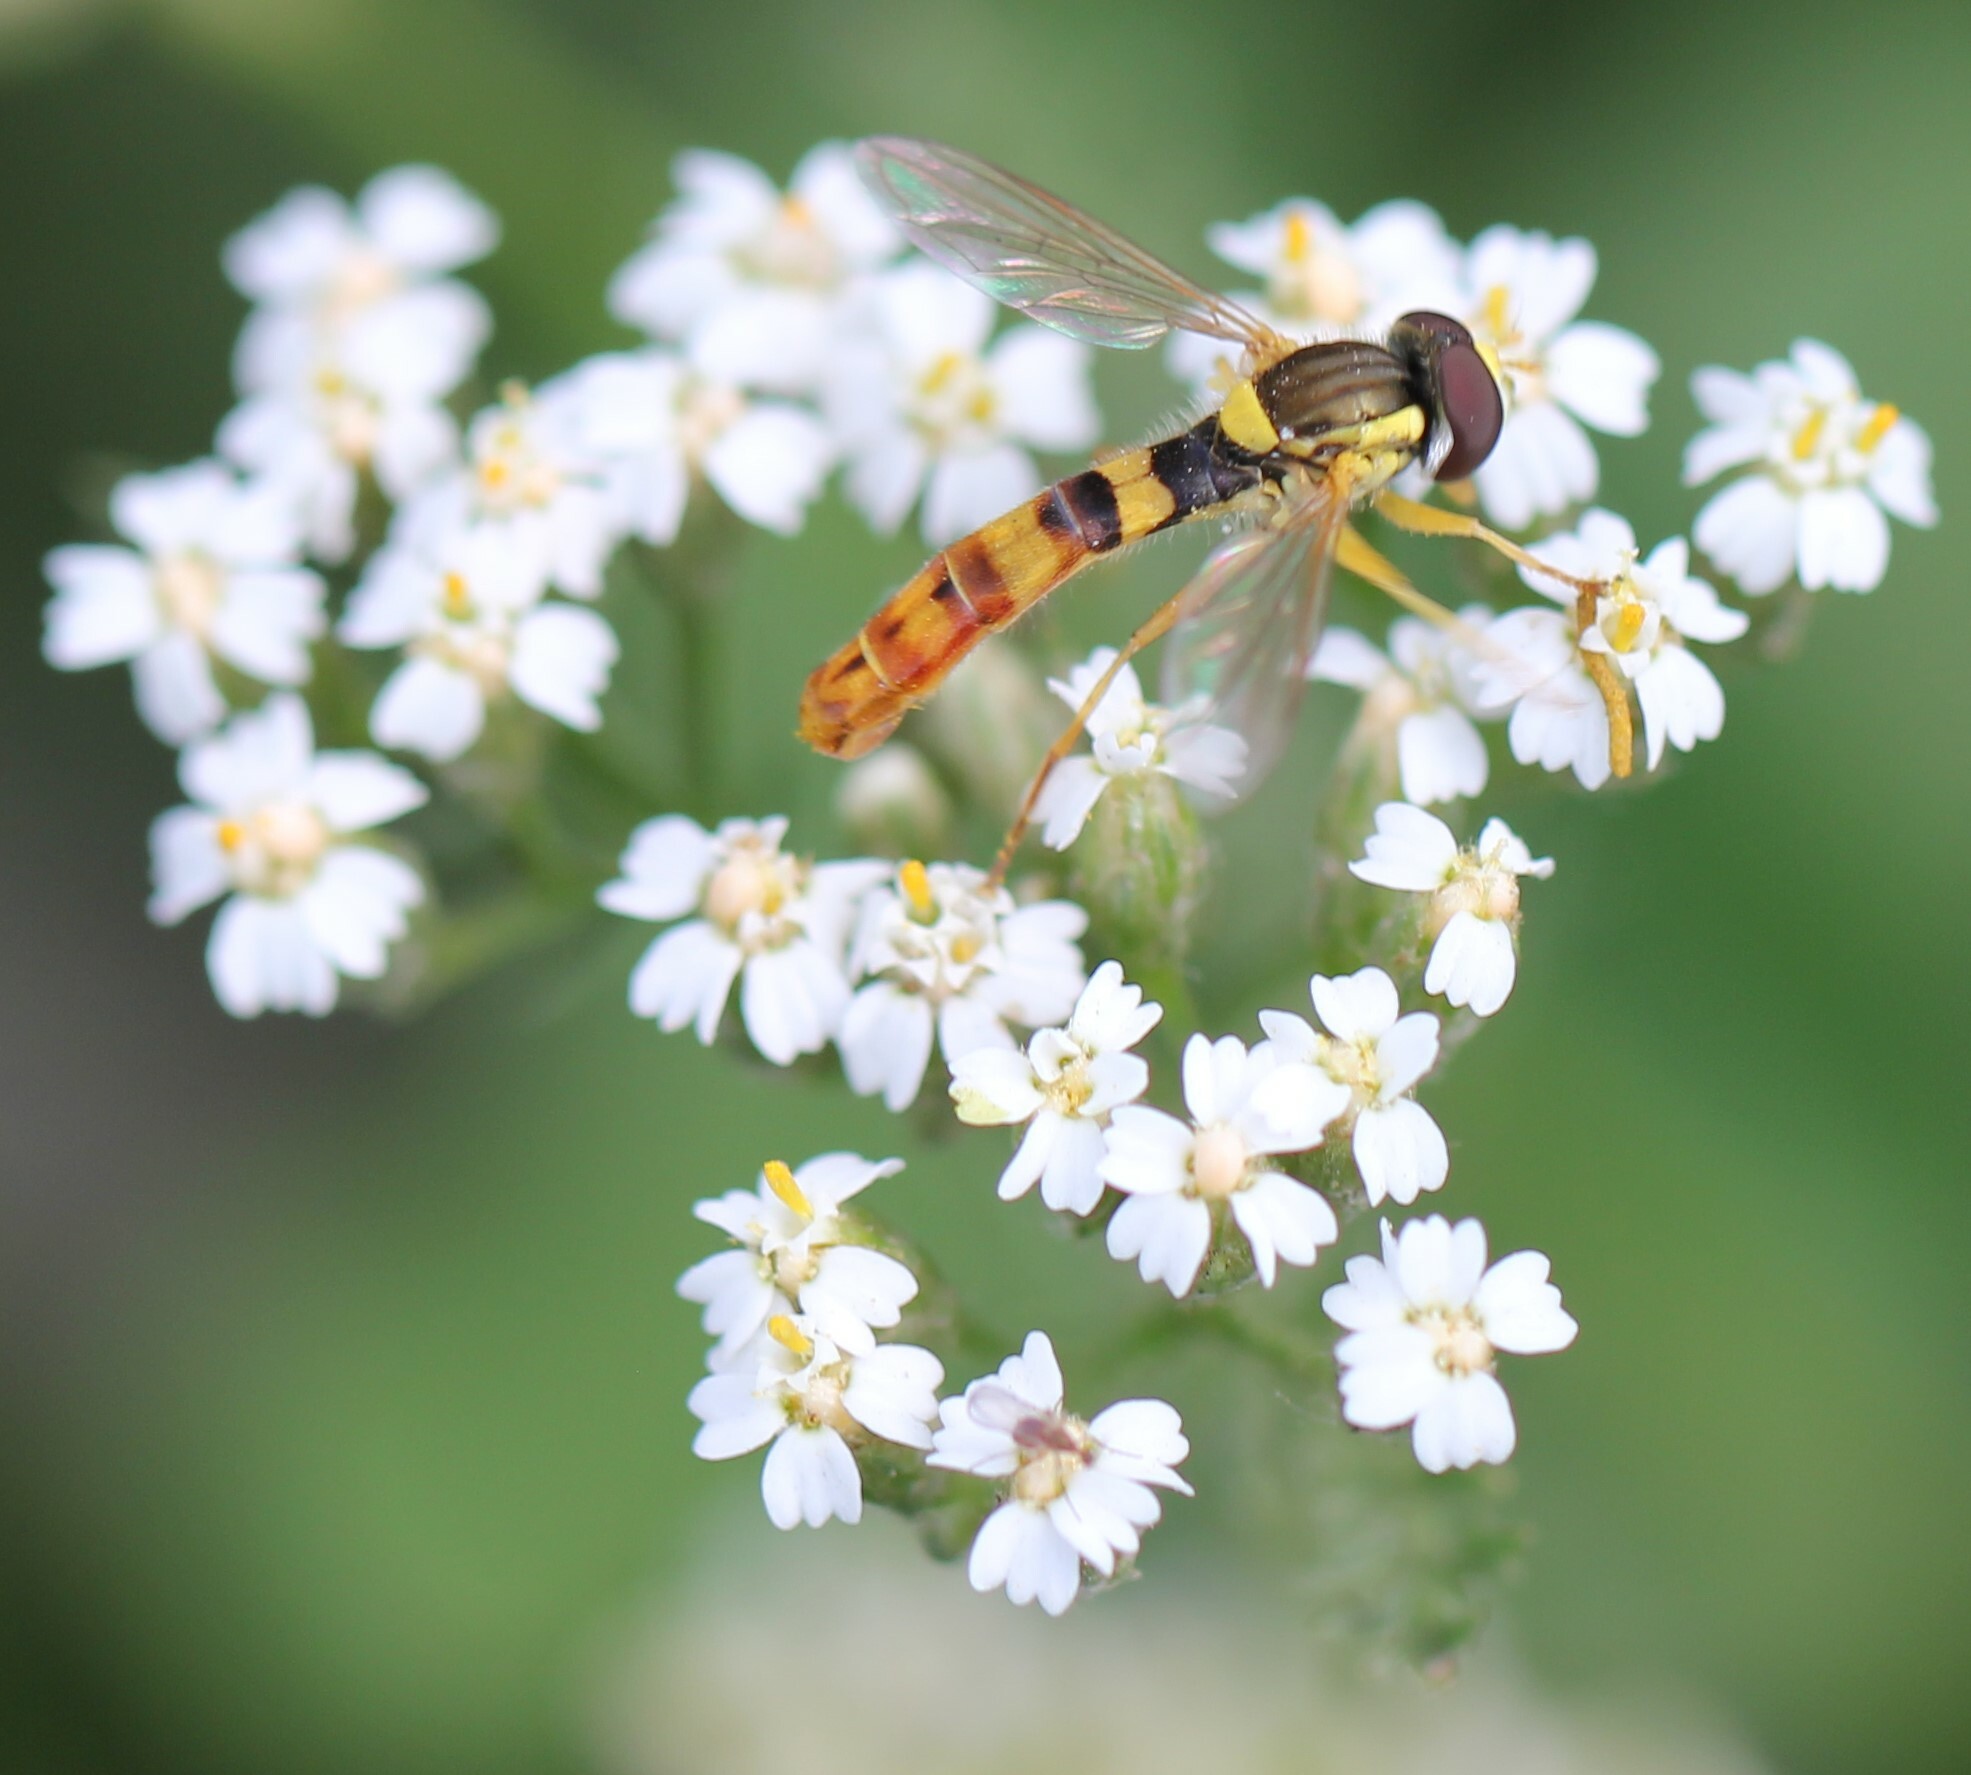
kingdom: Animalia
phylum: Arthropoda
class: Insecta
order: Diptera
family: Syrphidae
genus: Sphaerophoria
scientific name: Sphaerophoria scripta
